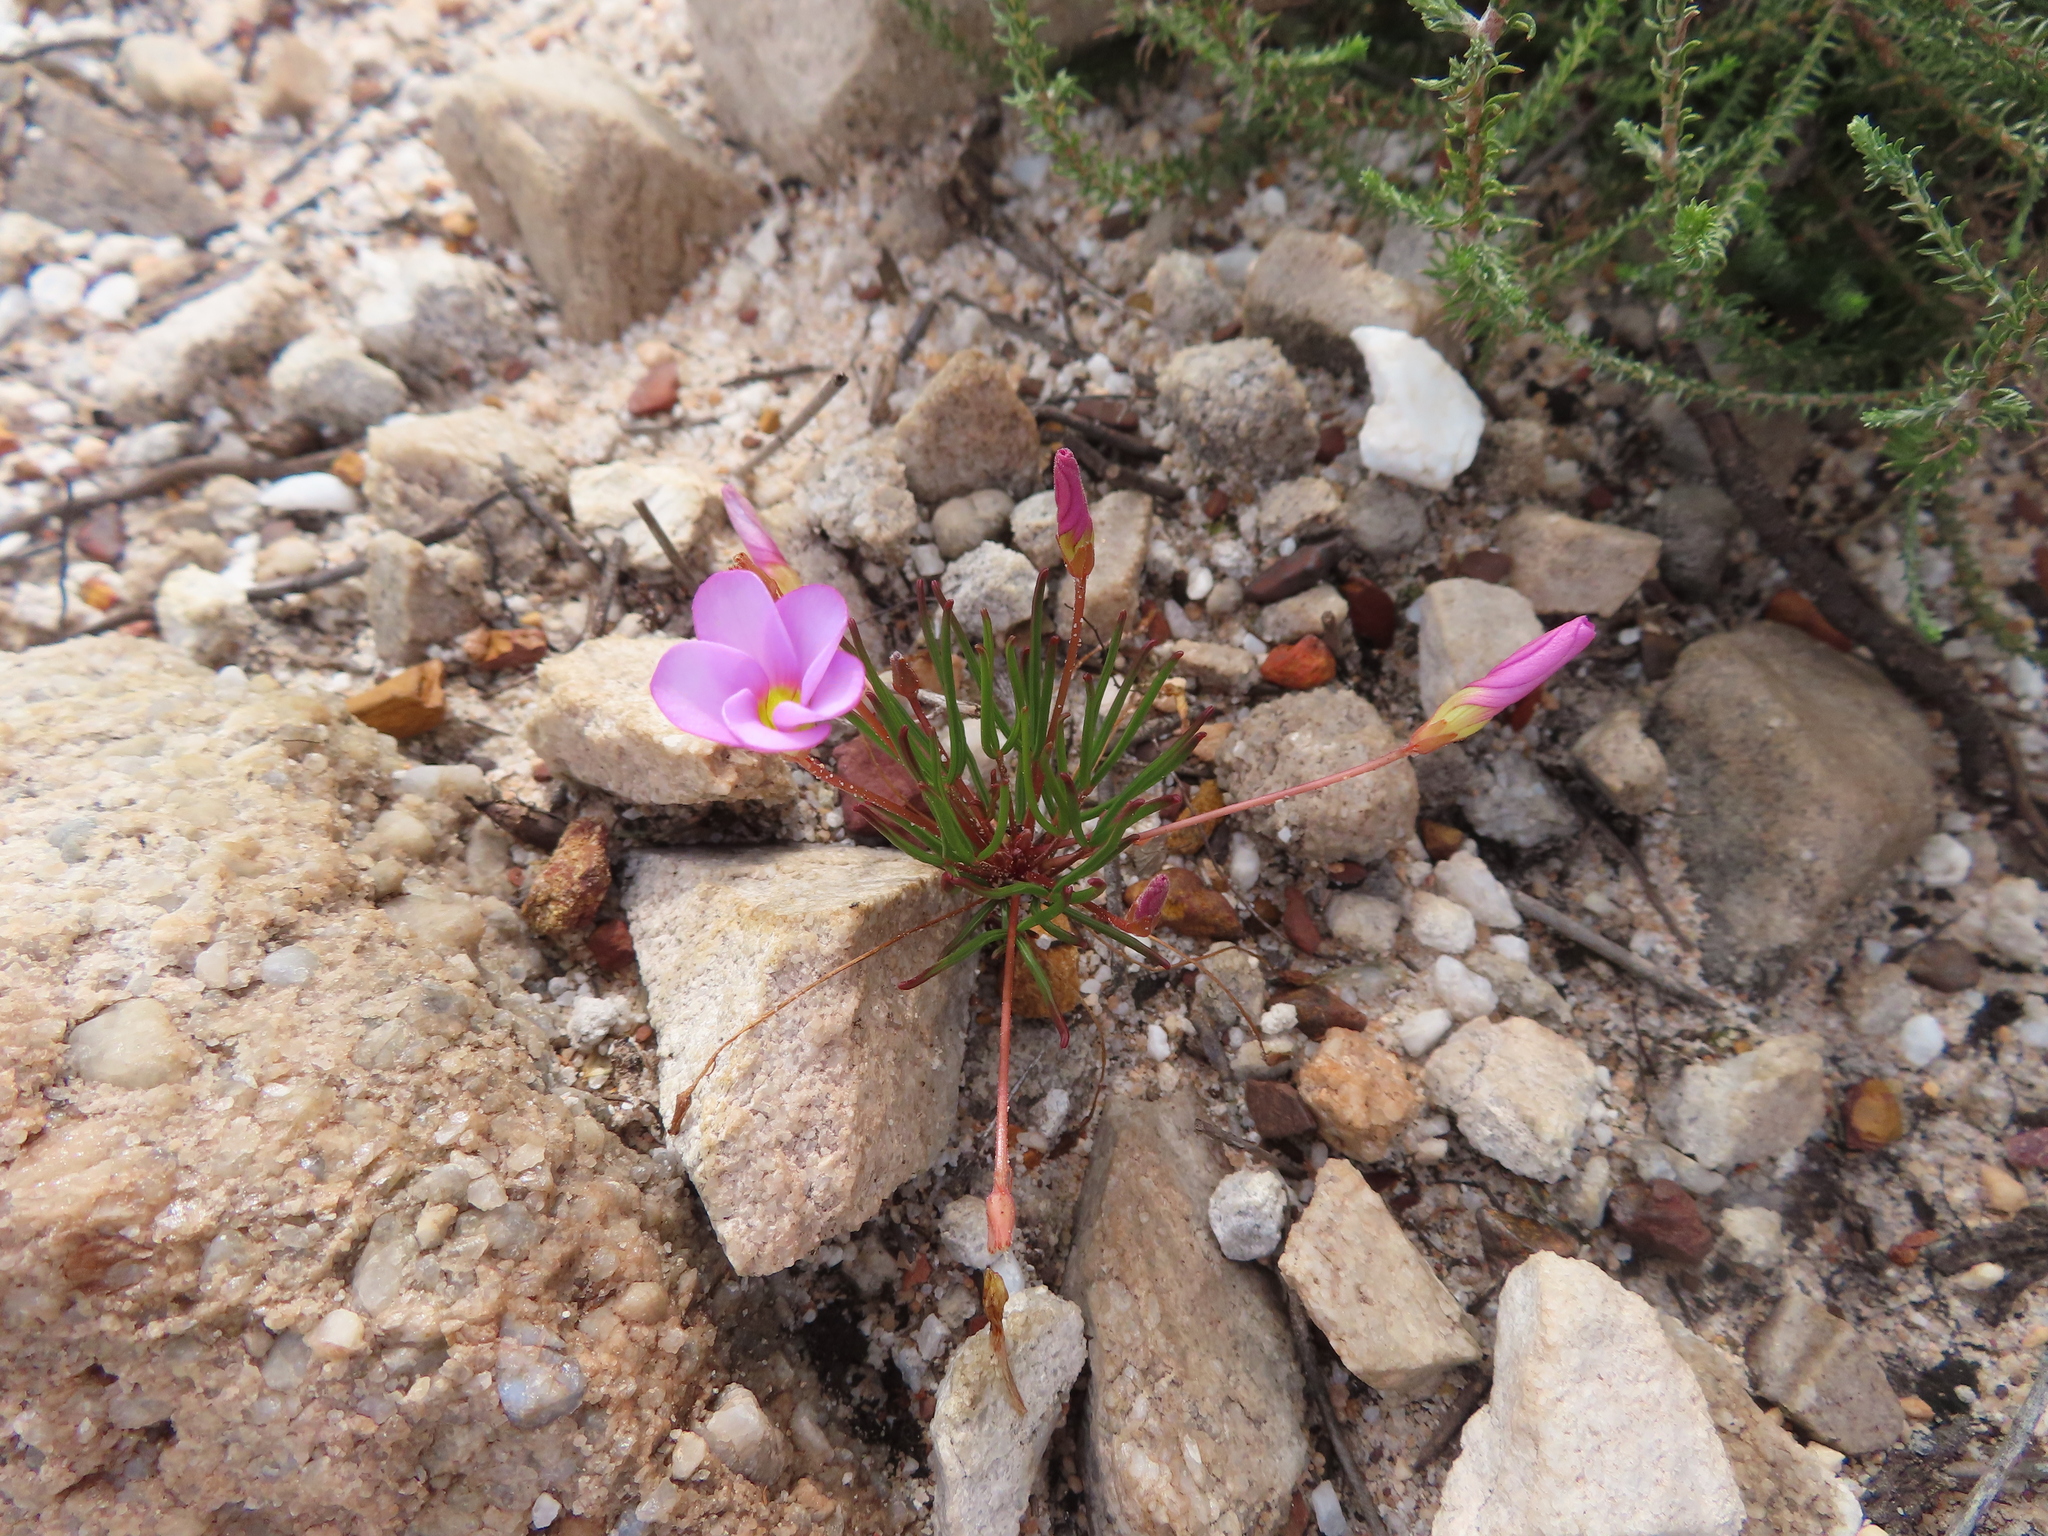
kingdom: Plantae
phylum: Tracheophyta
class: Magnoliopsida
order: Oxalidales
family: Oxalidaceae
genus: Oxalis
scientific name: Oxalis polyphylla
